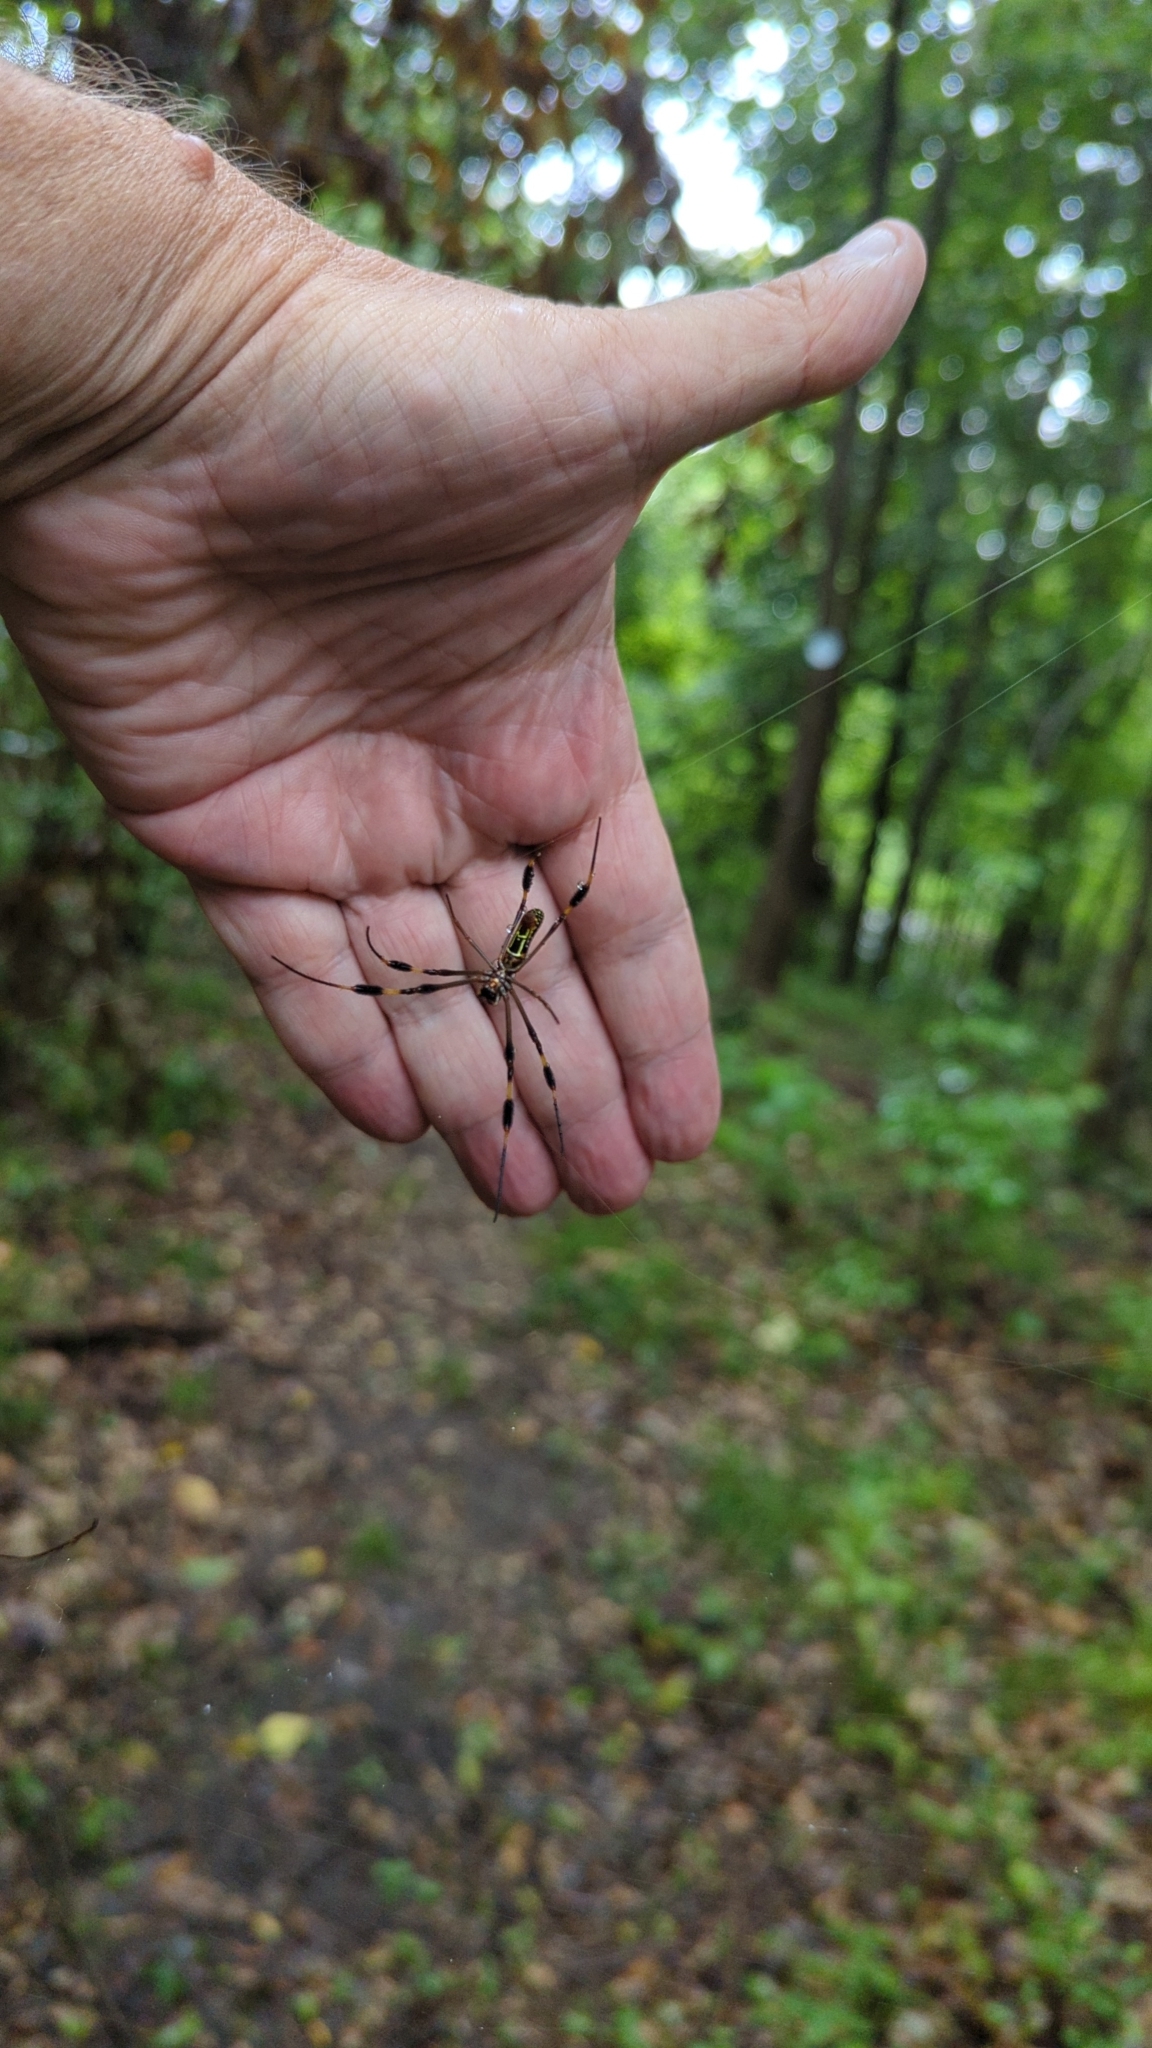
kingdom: Animalia
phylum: Arthropoda
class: Arachnida
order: Araneae
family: Araneidae
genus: Trichonephila
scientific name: Trichonephila clavipes
